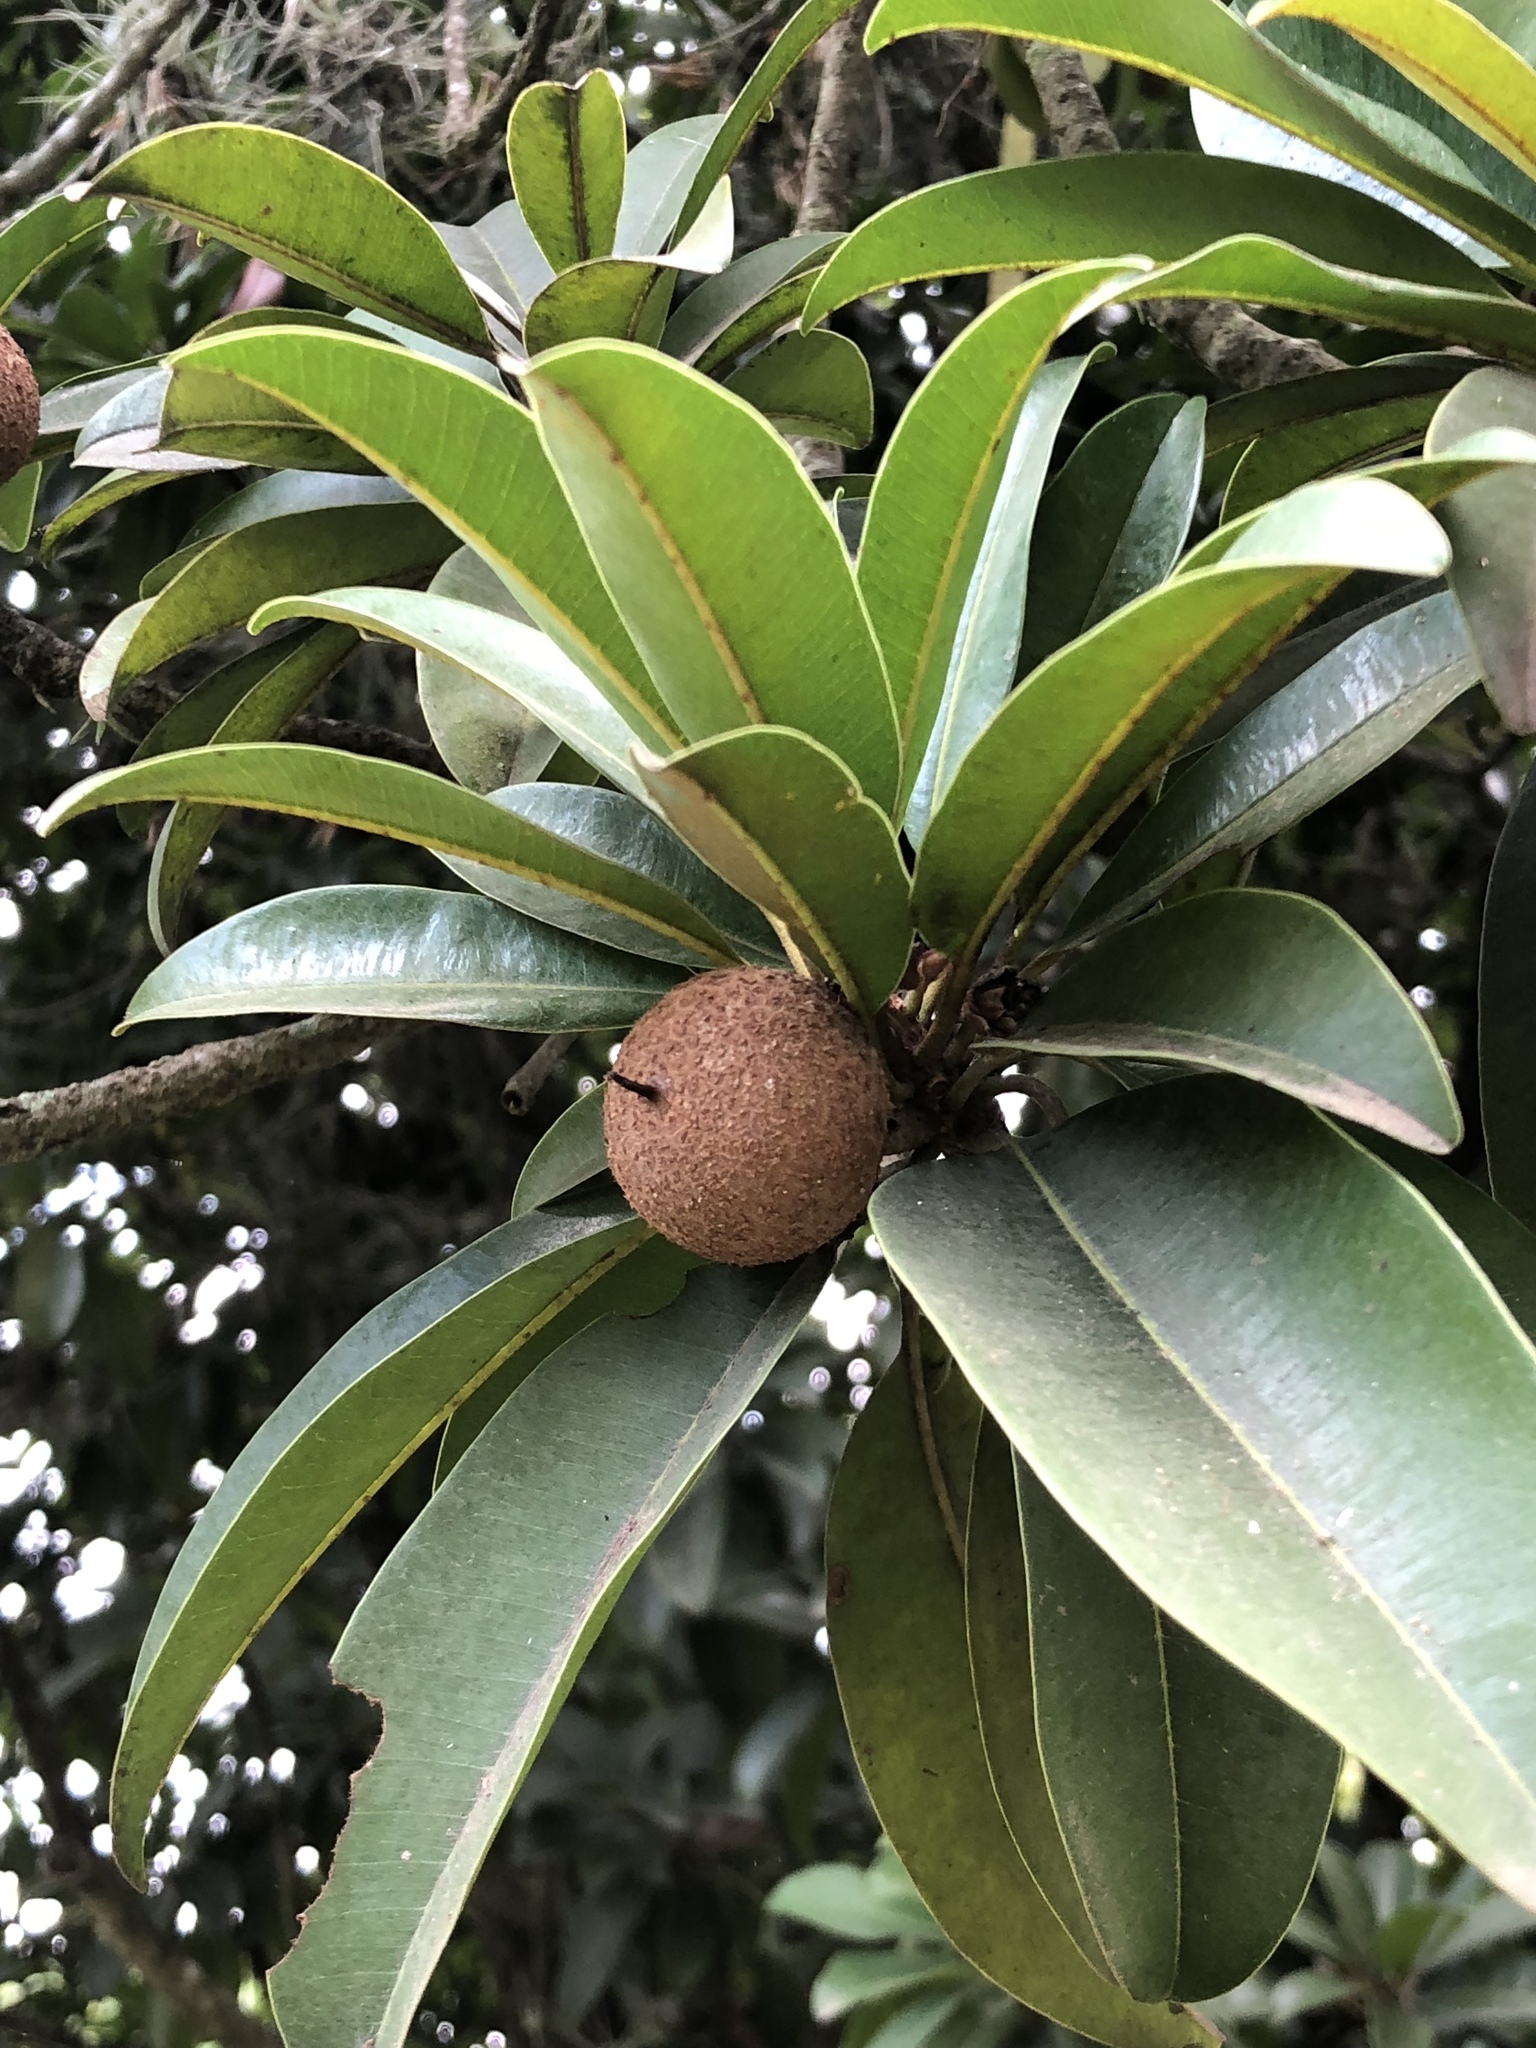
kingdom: Plantae
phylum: Tracheophyta
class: Magnoliopsida
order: Ericales
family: Sapotaceae
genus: Manilkara
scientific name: Manilkara zapota
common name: Sapodilla
